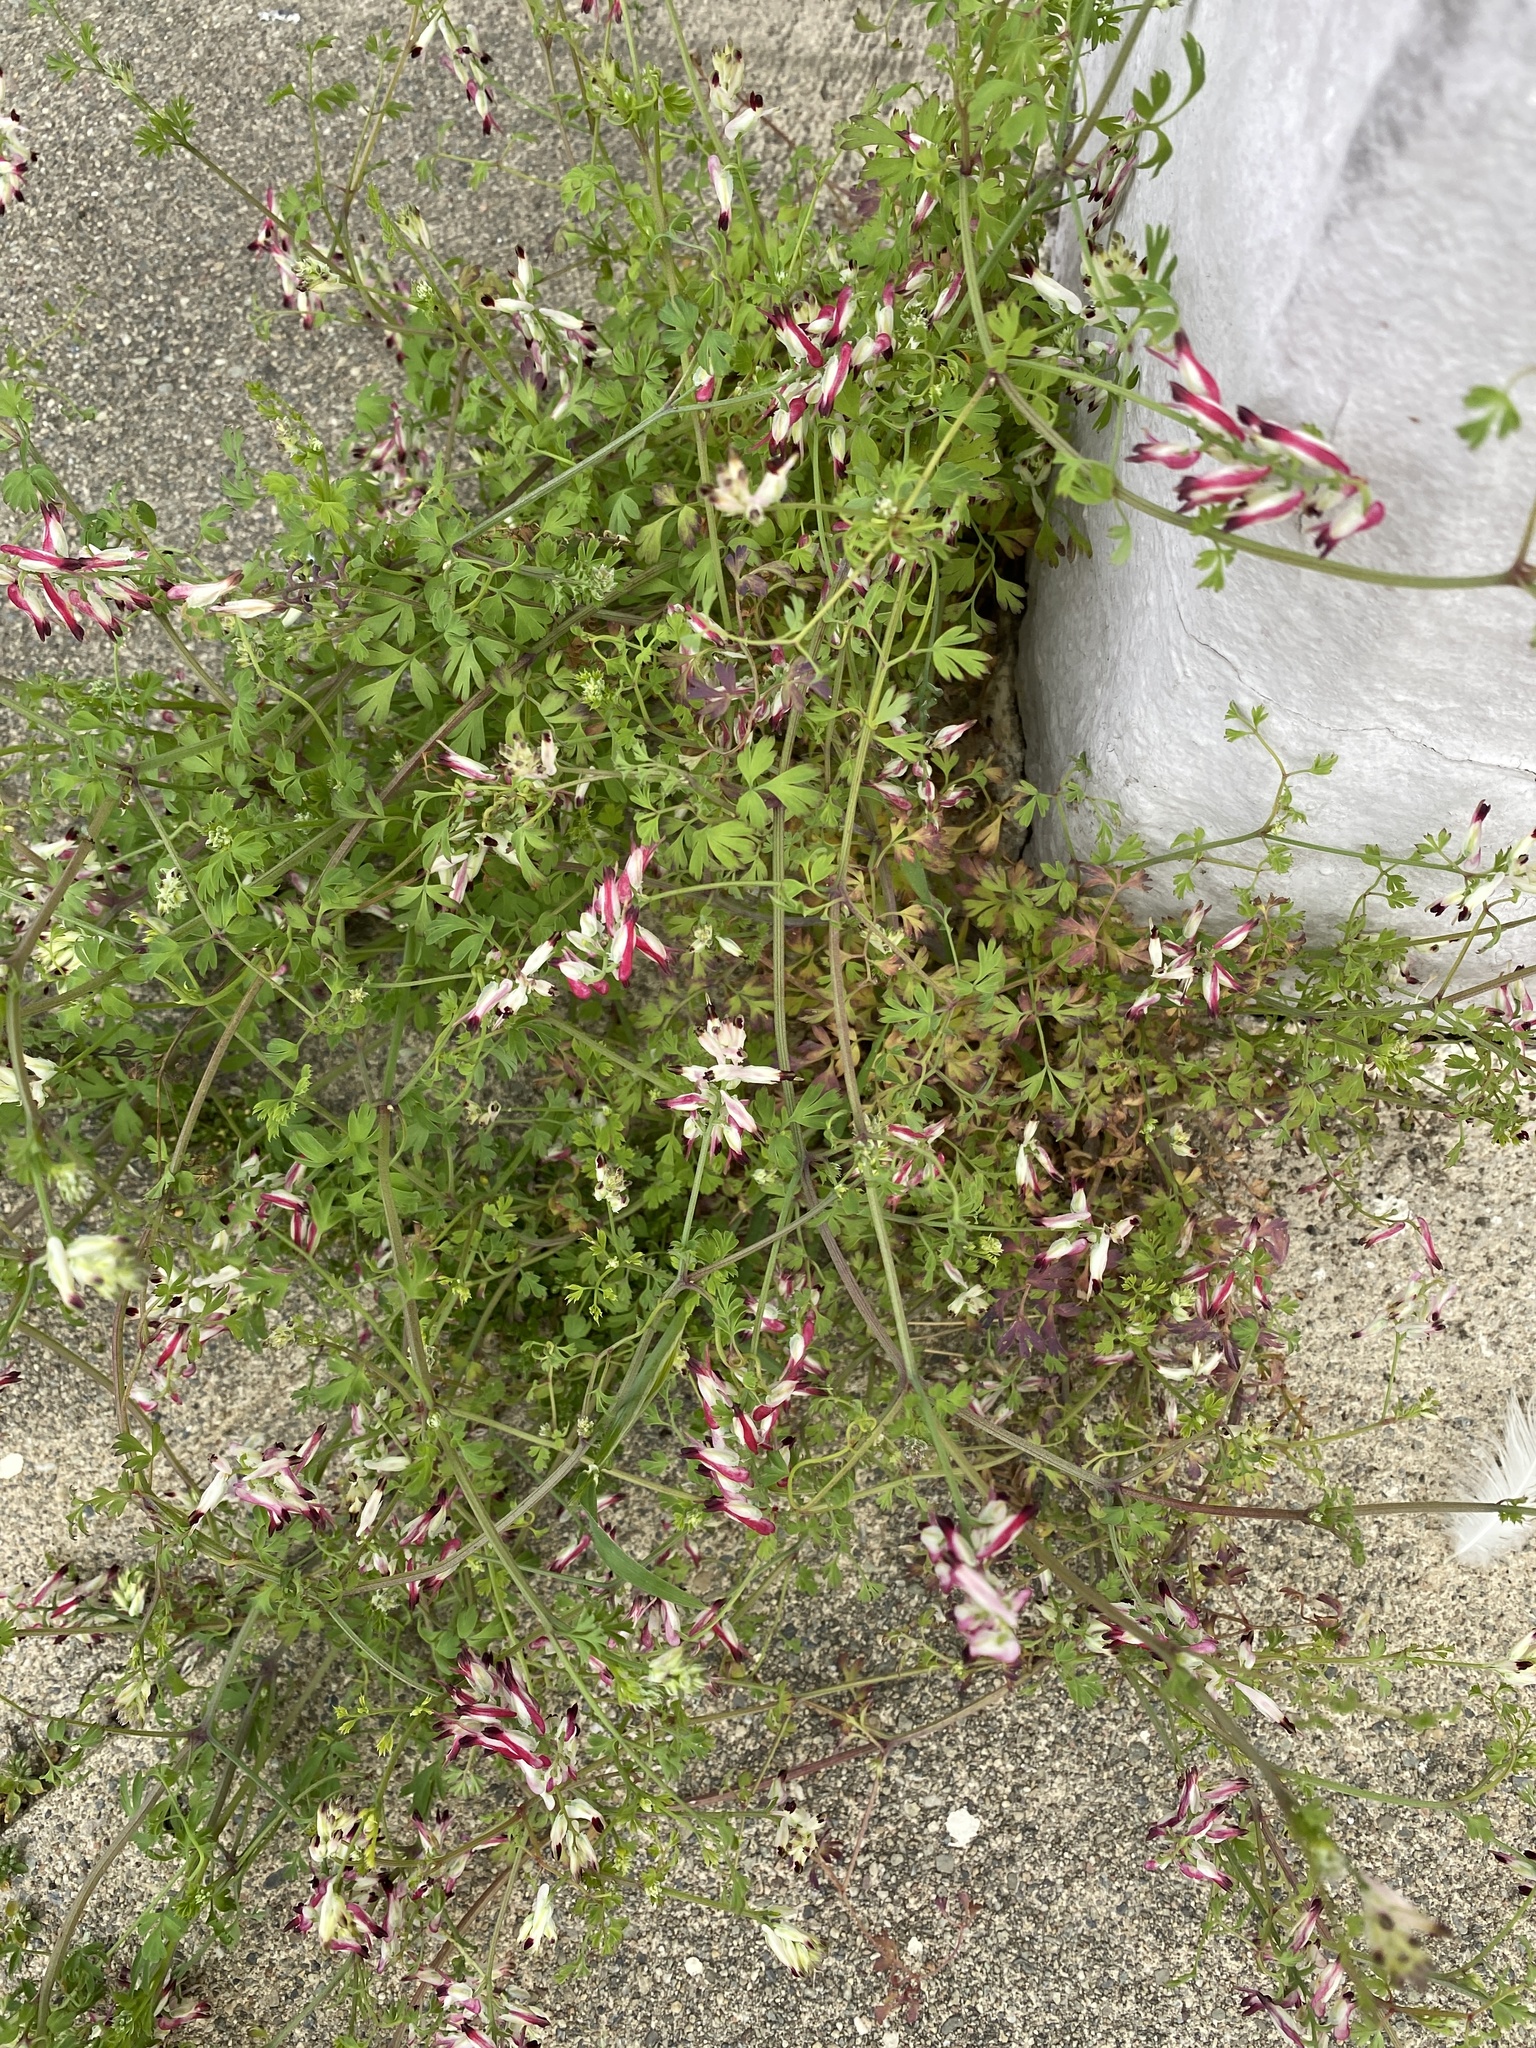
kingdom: Plantae
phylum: Tracheophyta
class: Magnoliopsida
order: Ranunculales
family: Papaveraceae
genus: Fumaria
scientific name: Fumaria capreolata
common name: White ramping-fumitory
